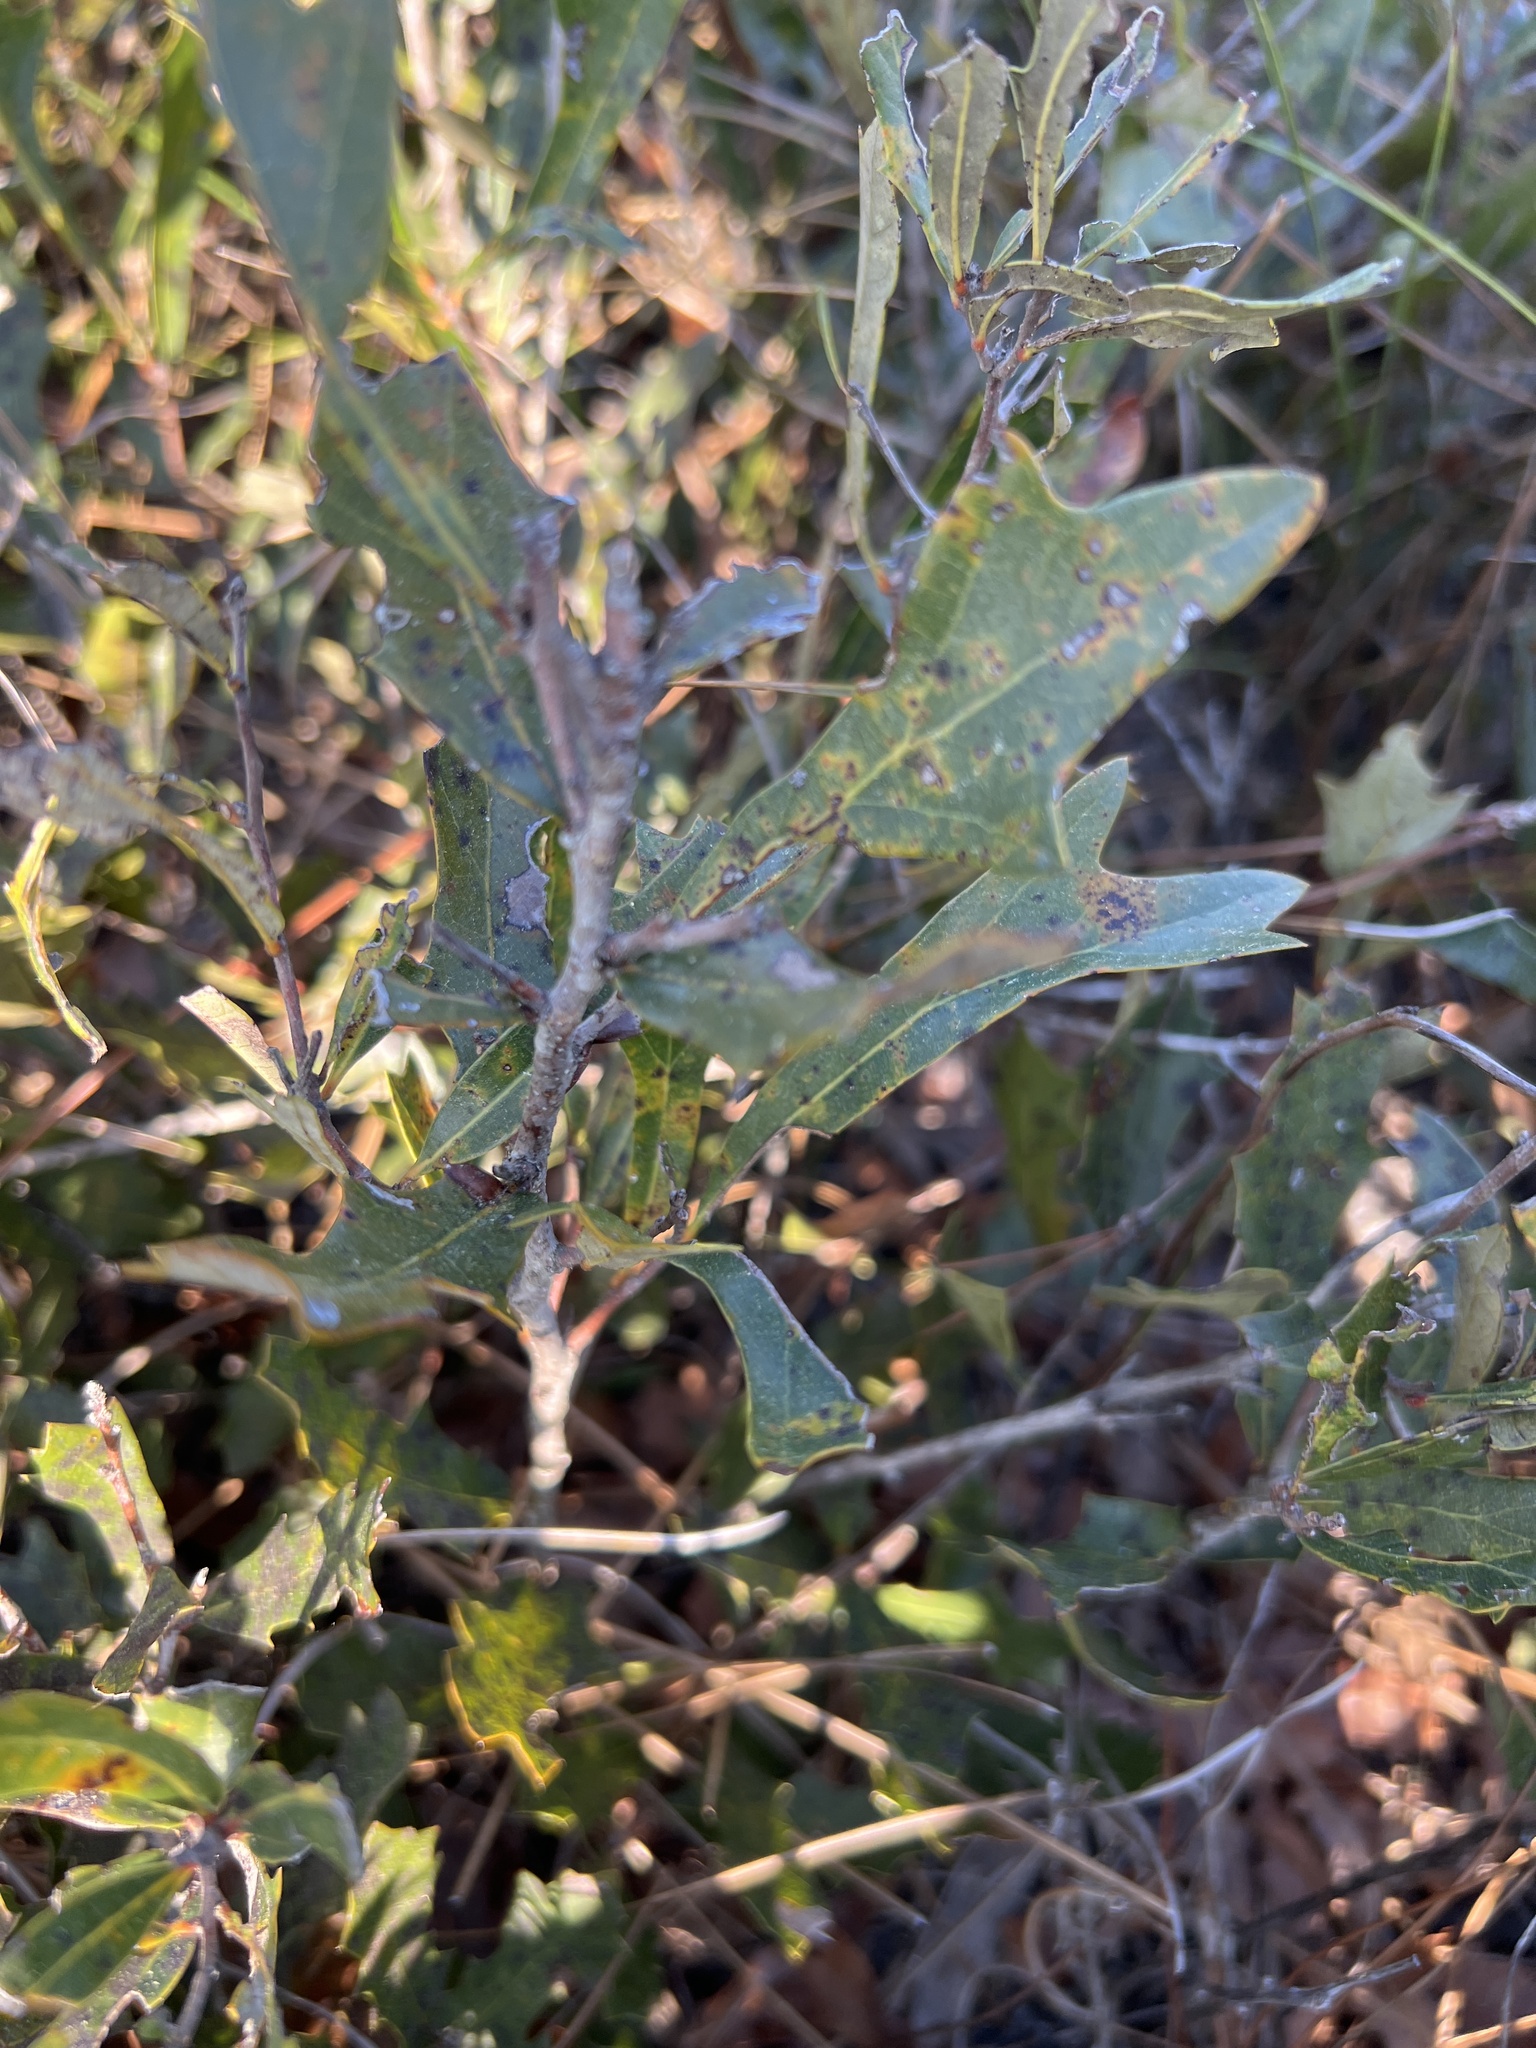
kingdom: Plantae
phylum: Tracheophyta
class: Magnoliopsida
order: Fagales
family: Fagaceae
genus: Quercus
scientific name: Quercus minima
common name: Dwarf live oak
